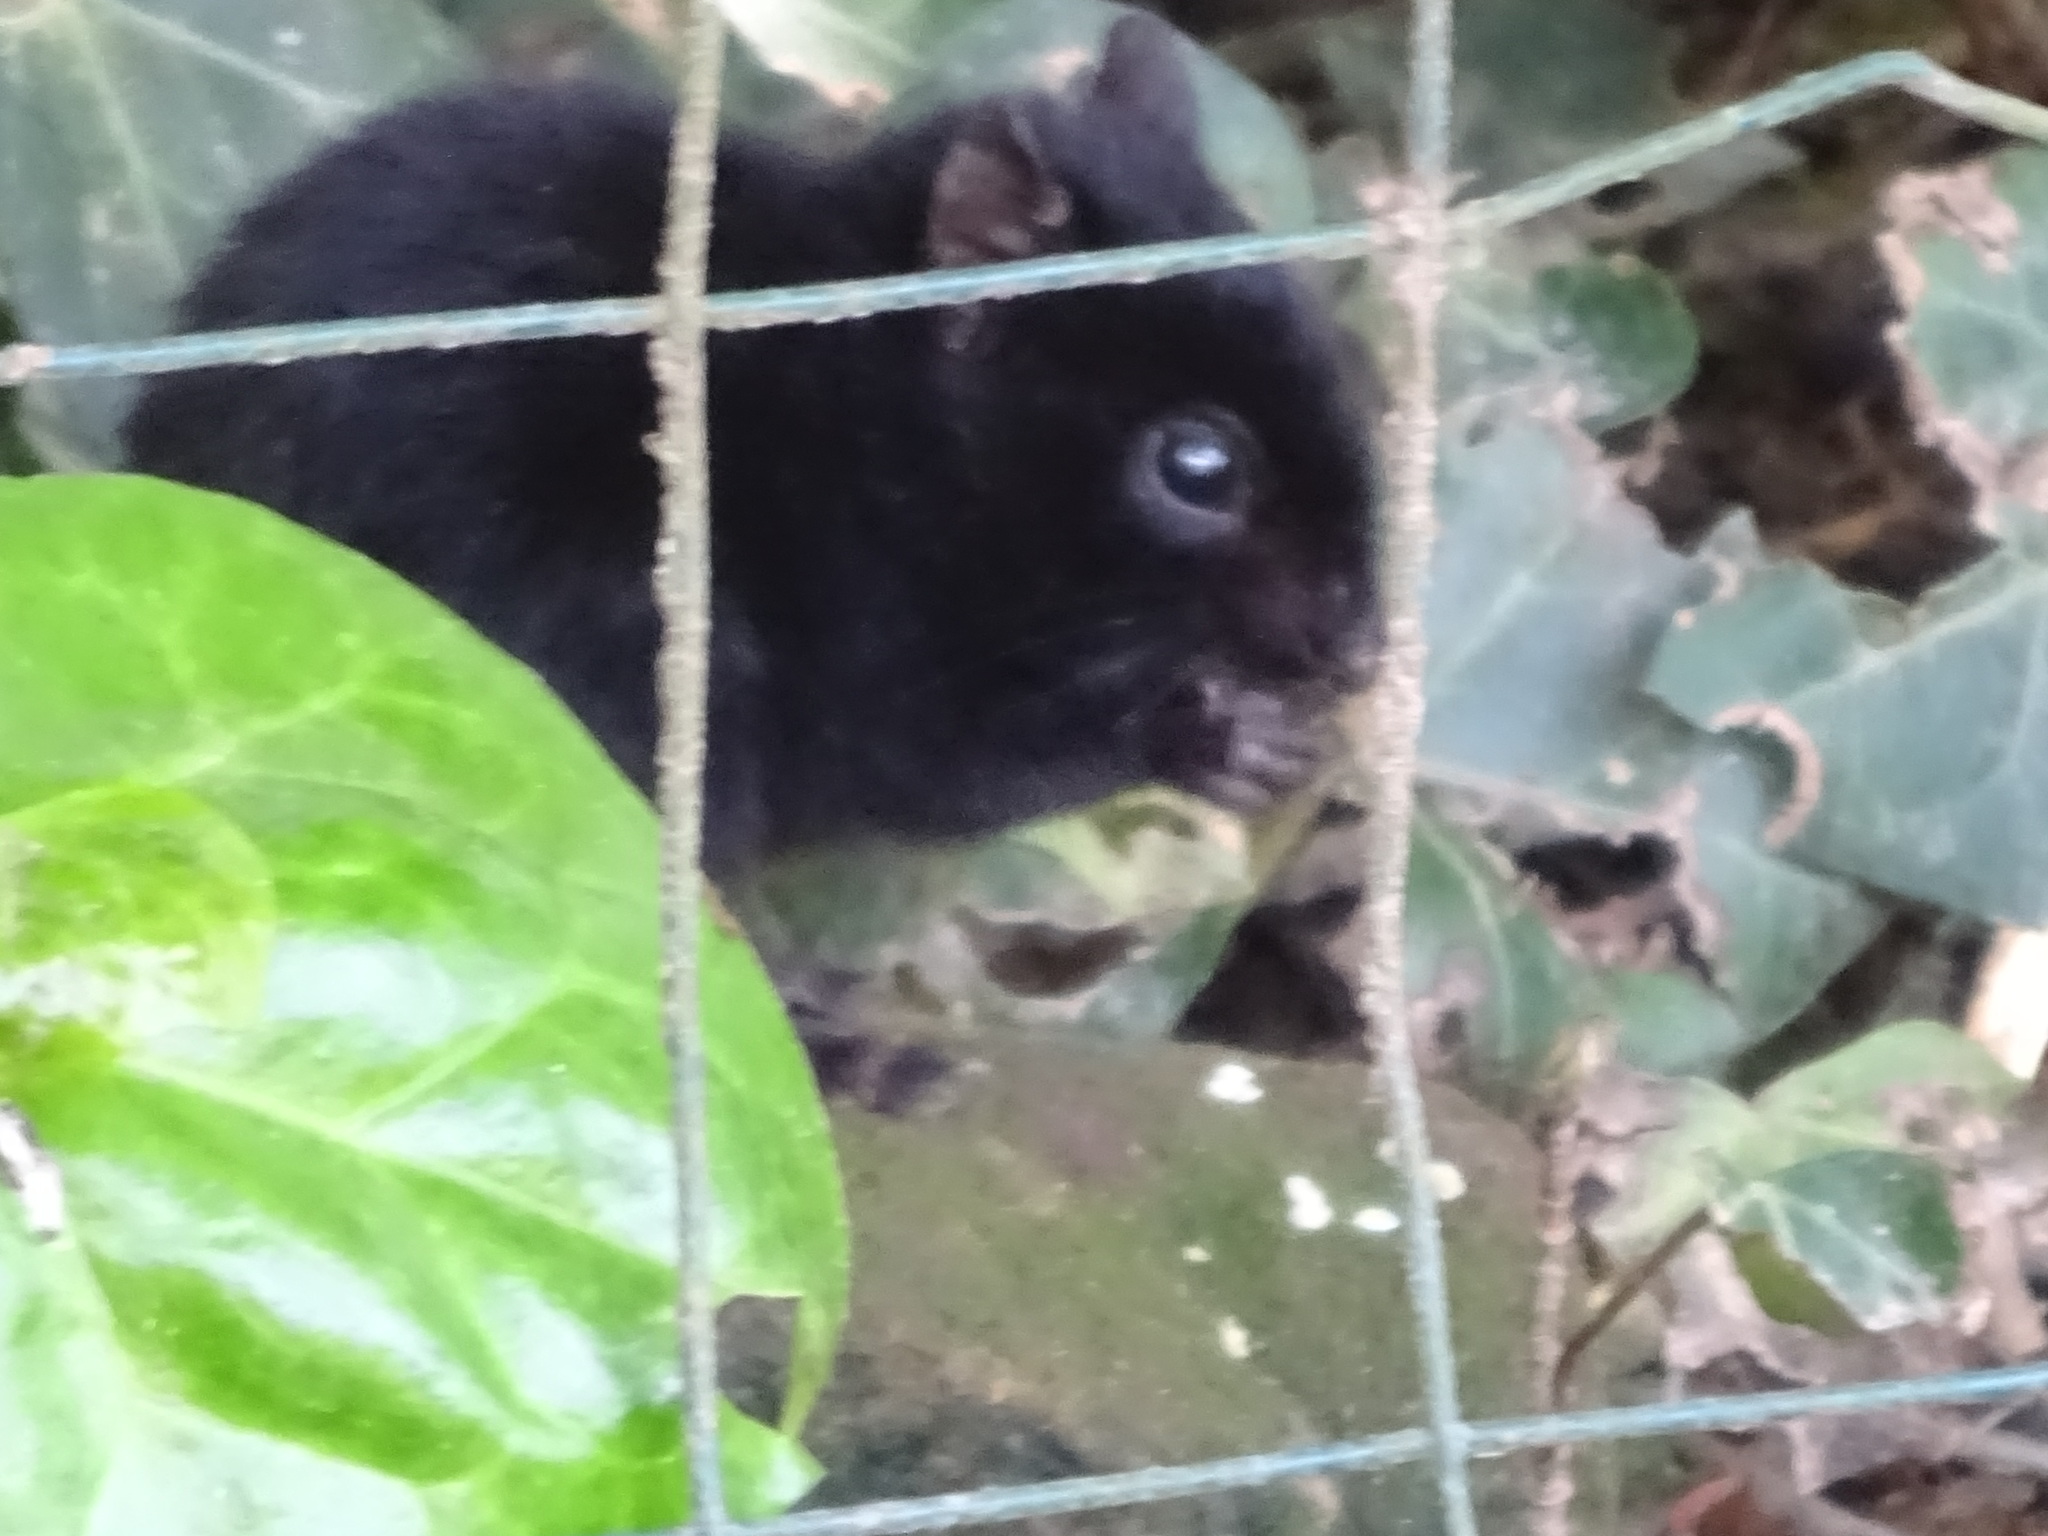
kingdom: Animalia
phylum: Chordata
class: Mammalia
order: Rodentia
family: Sciuridae
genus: Tamias
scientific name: Tamias sonomae
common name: Sonoma chipmunk
